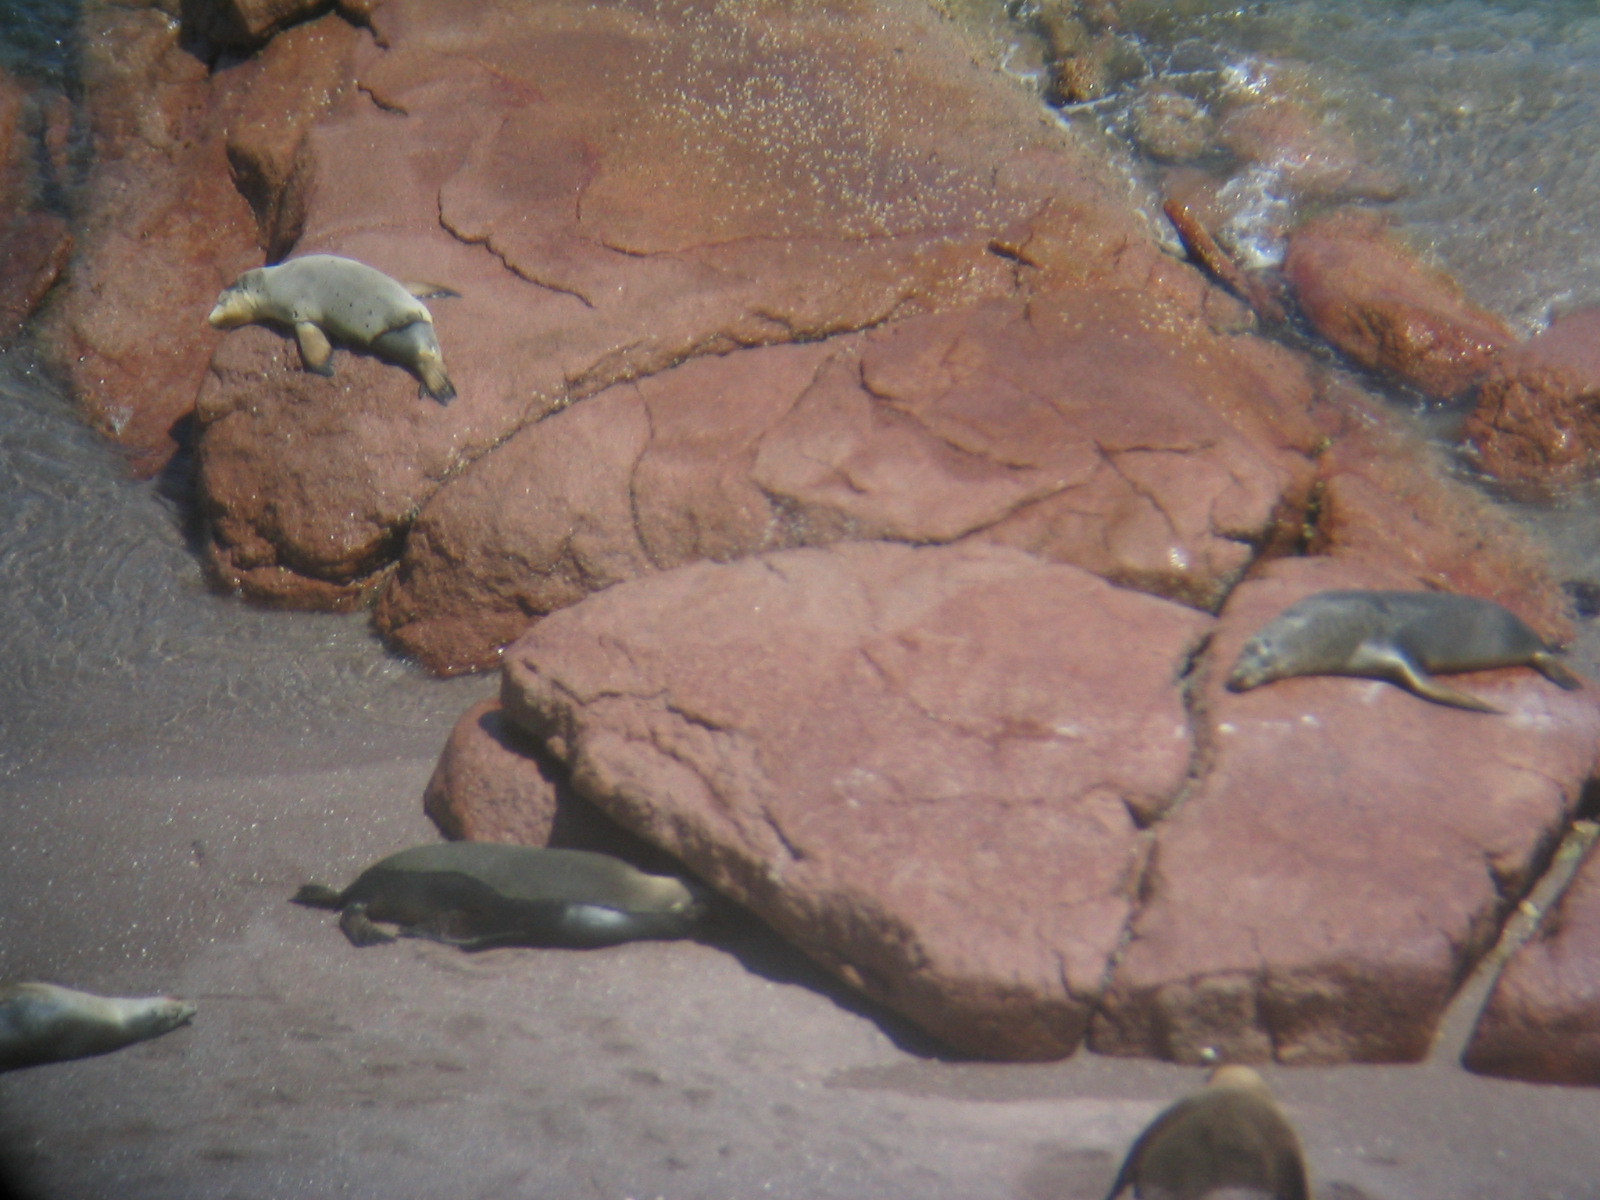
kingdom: Animalia
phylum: Chordata
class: Mammalia
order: Carnivora
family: Otariidae
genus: Neophoca
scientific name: Neophoca cinerea
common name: Australian sea lion
